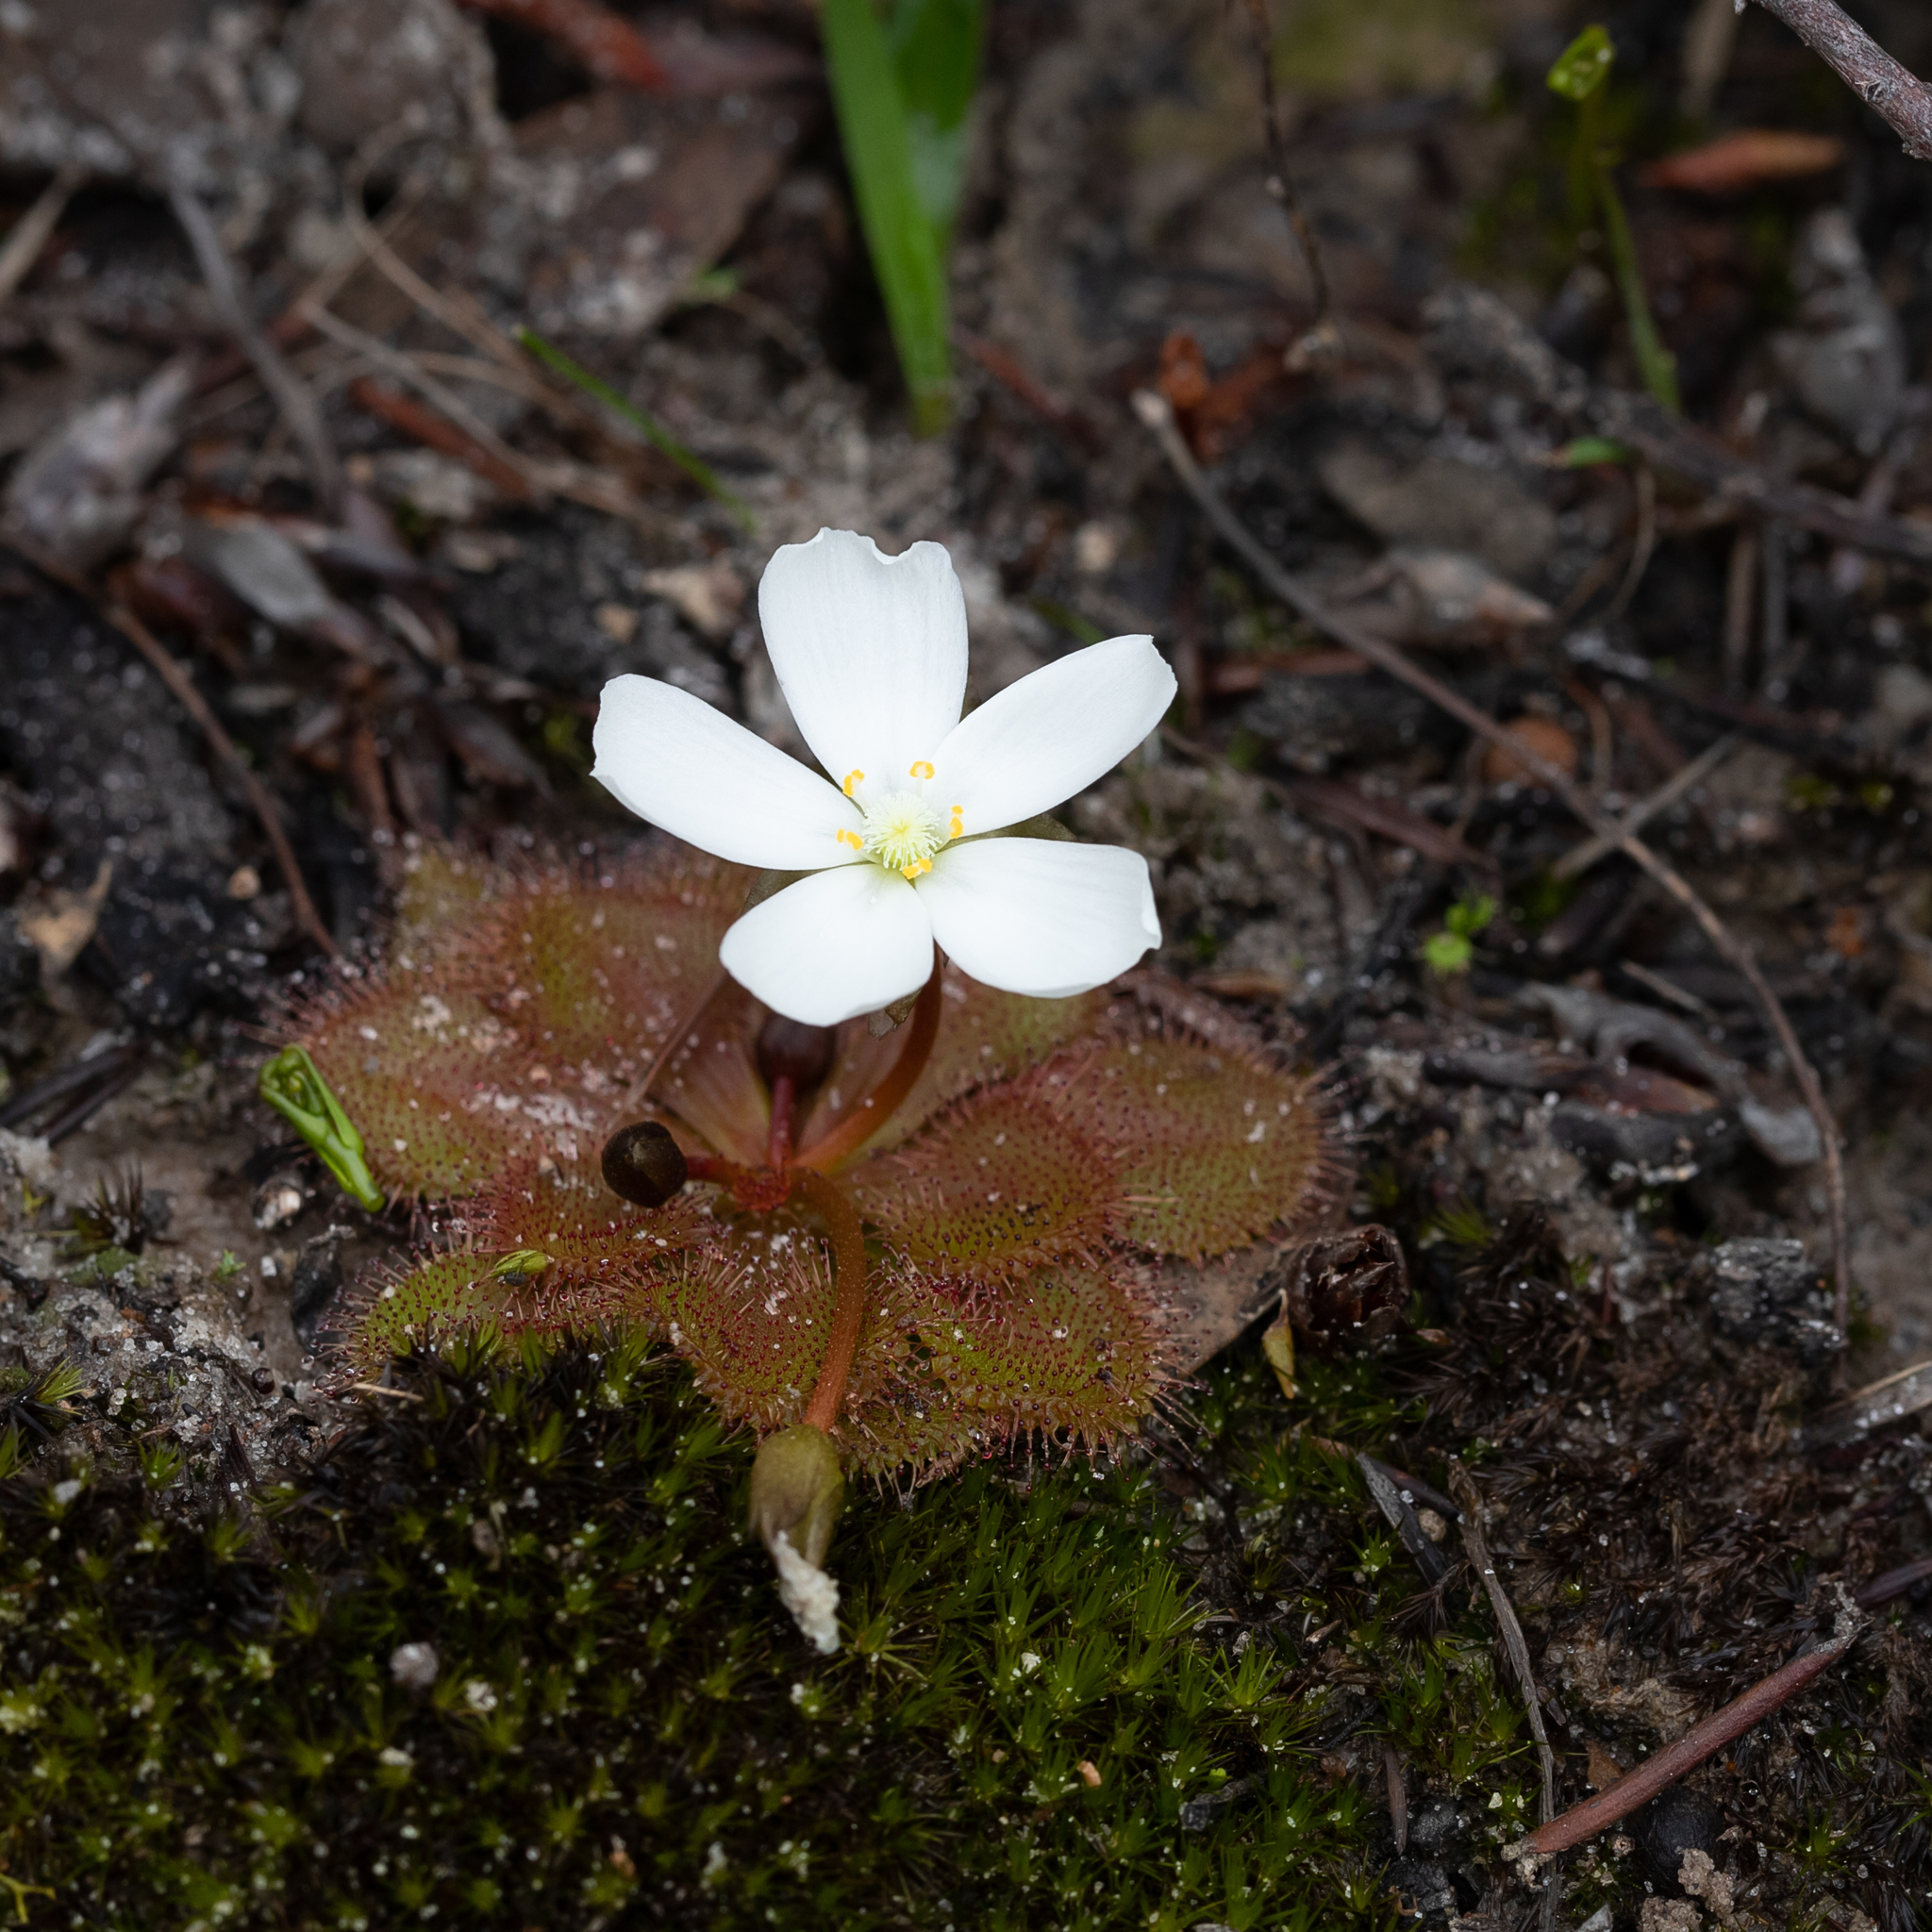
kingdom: Plantae
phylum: Tracheophyta
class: Magnoliopsida
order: Caryophyllales
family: Droseraceae
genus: Drosera
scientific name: Drosera whittakeri
